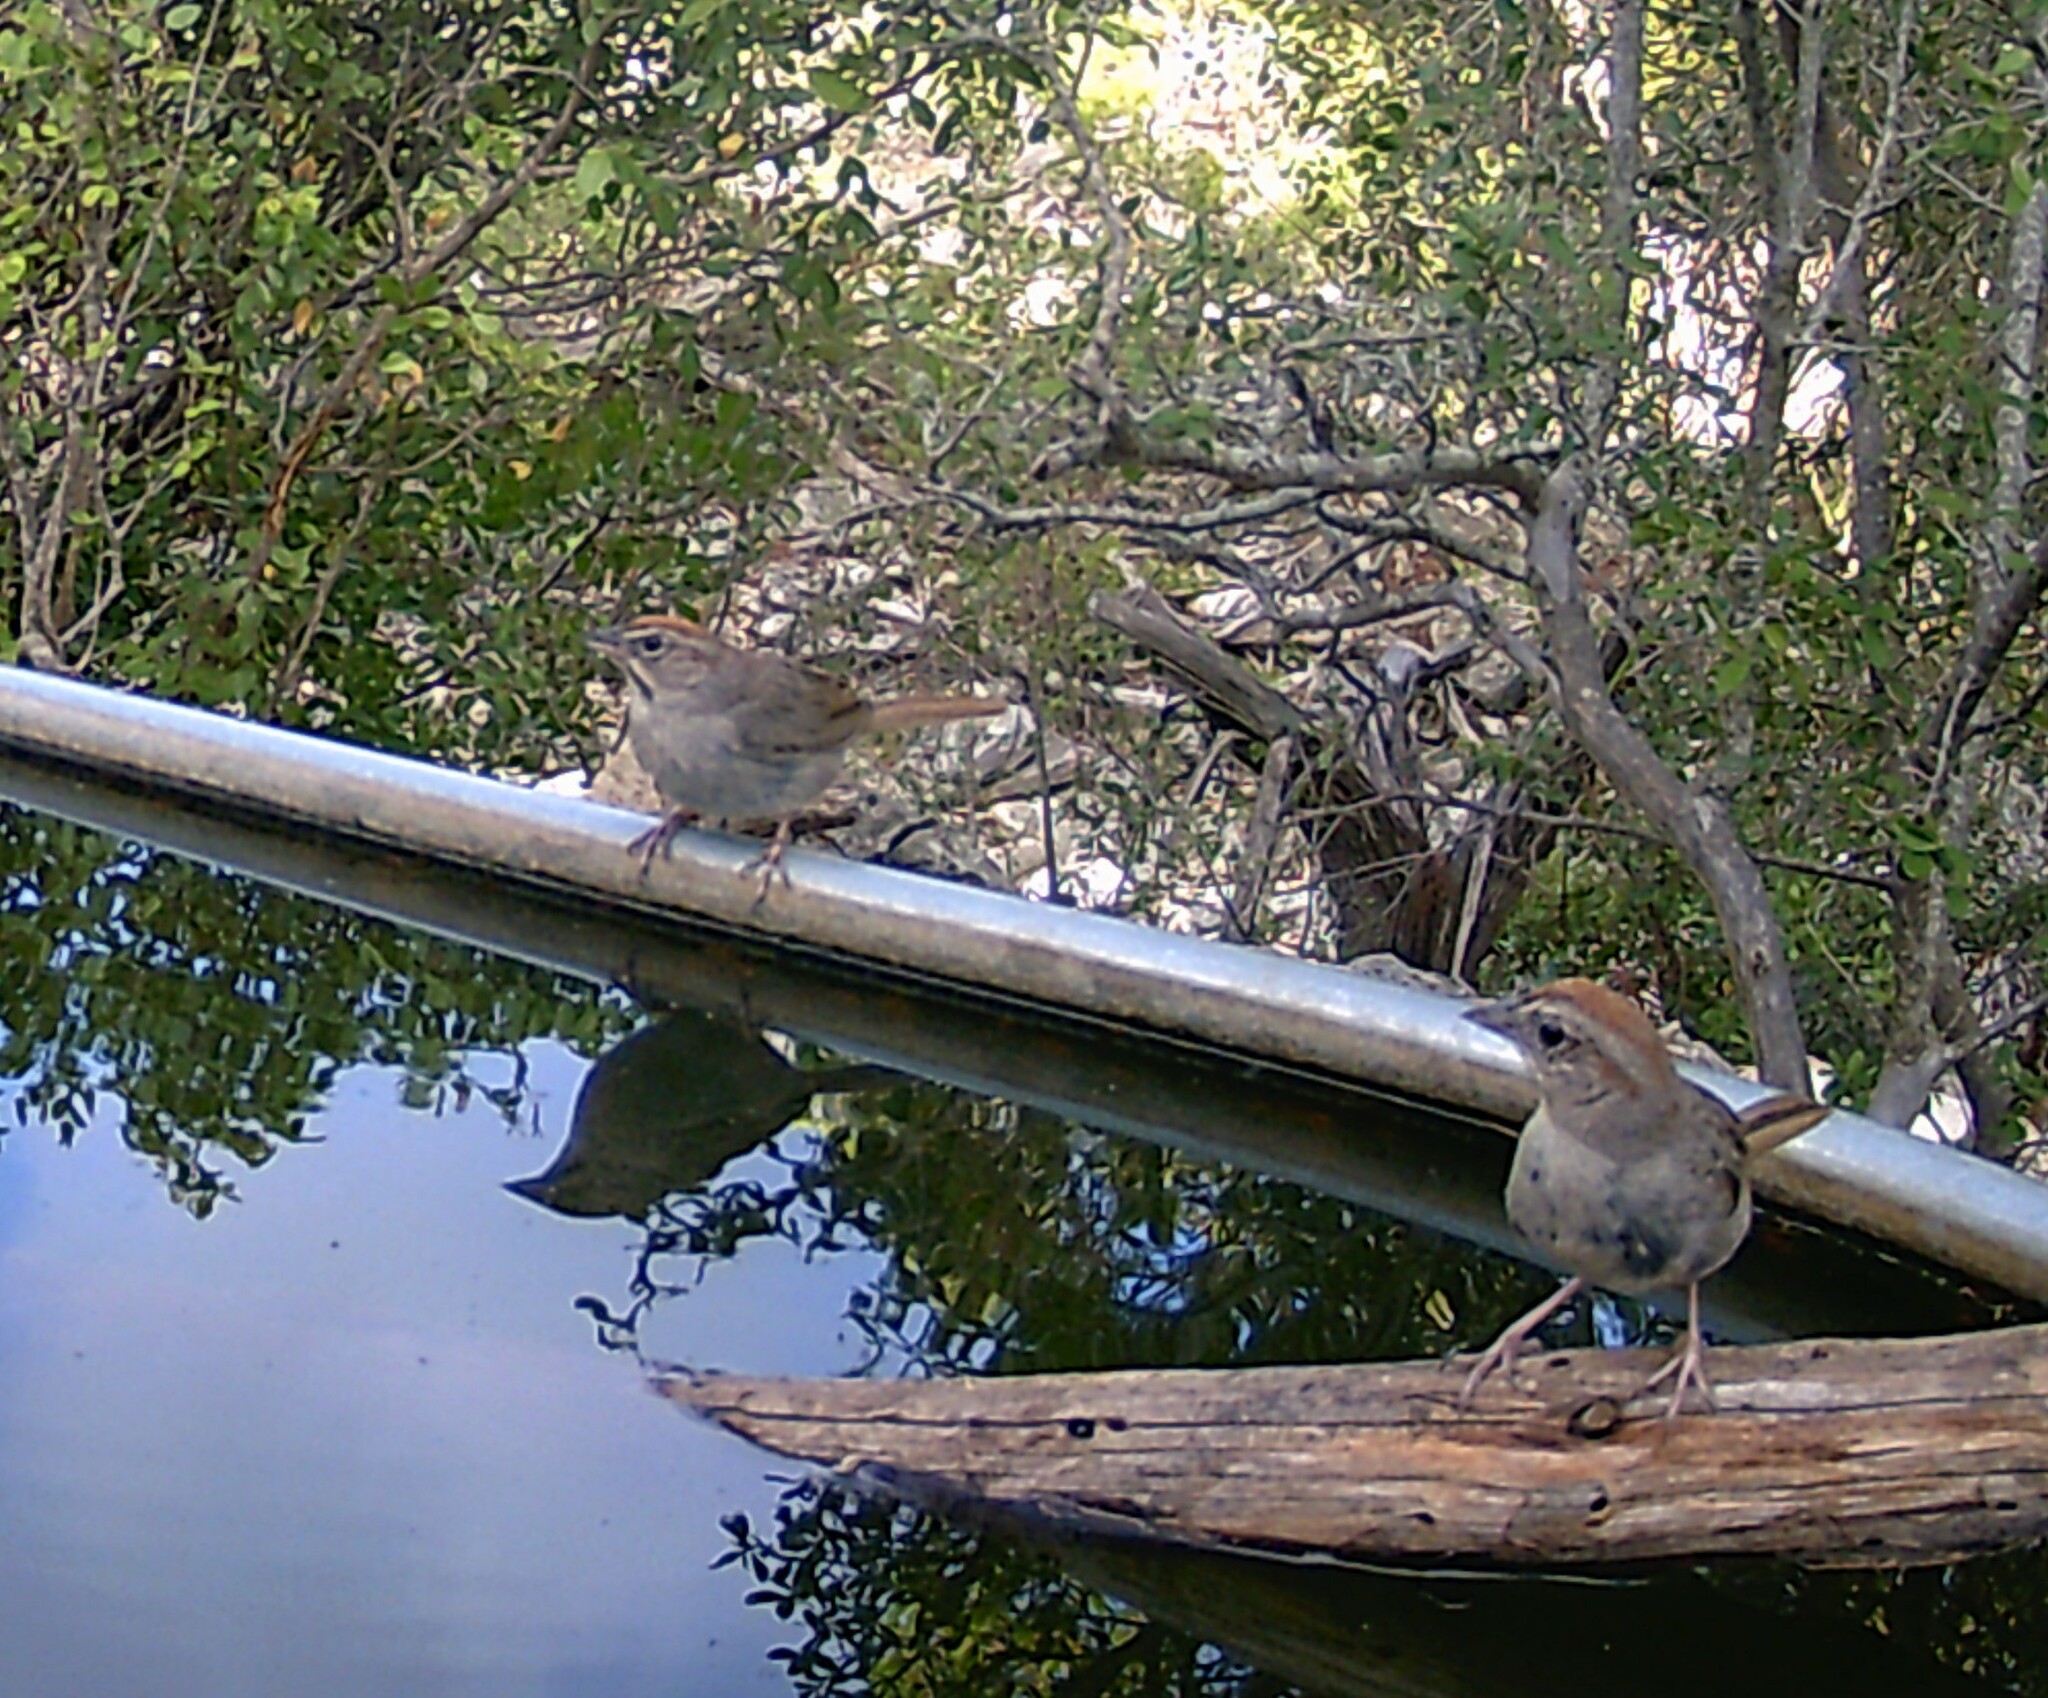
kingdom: Animalia
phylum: Chordata
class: Aves
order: Passeriformes
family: Passerellidae
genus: Aimophila
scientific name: Aimophila ruficeps
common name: Rufous-crowned sparrow
